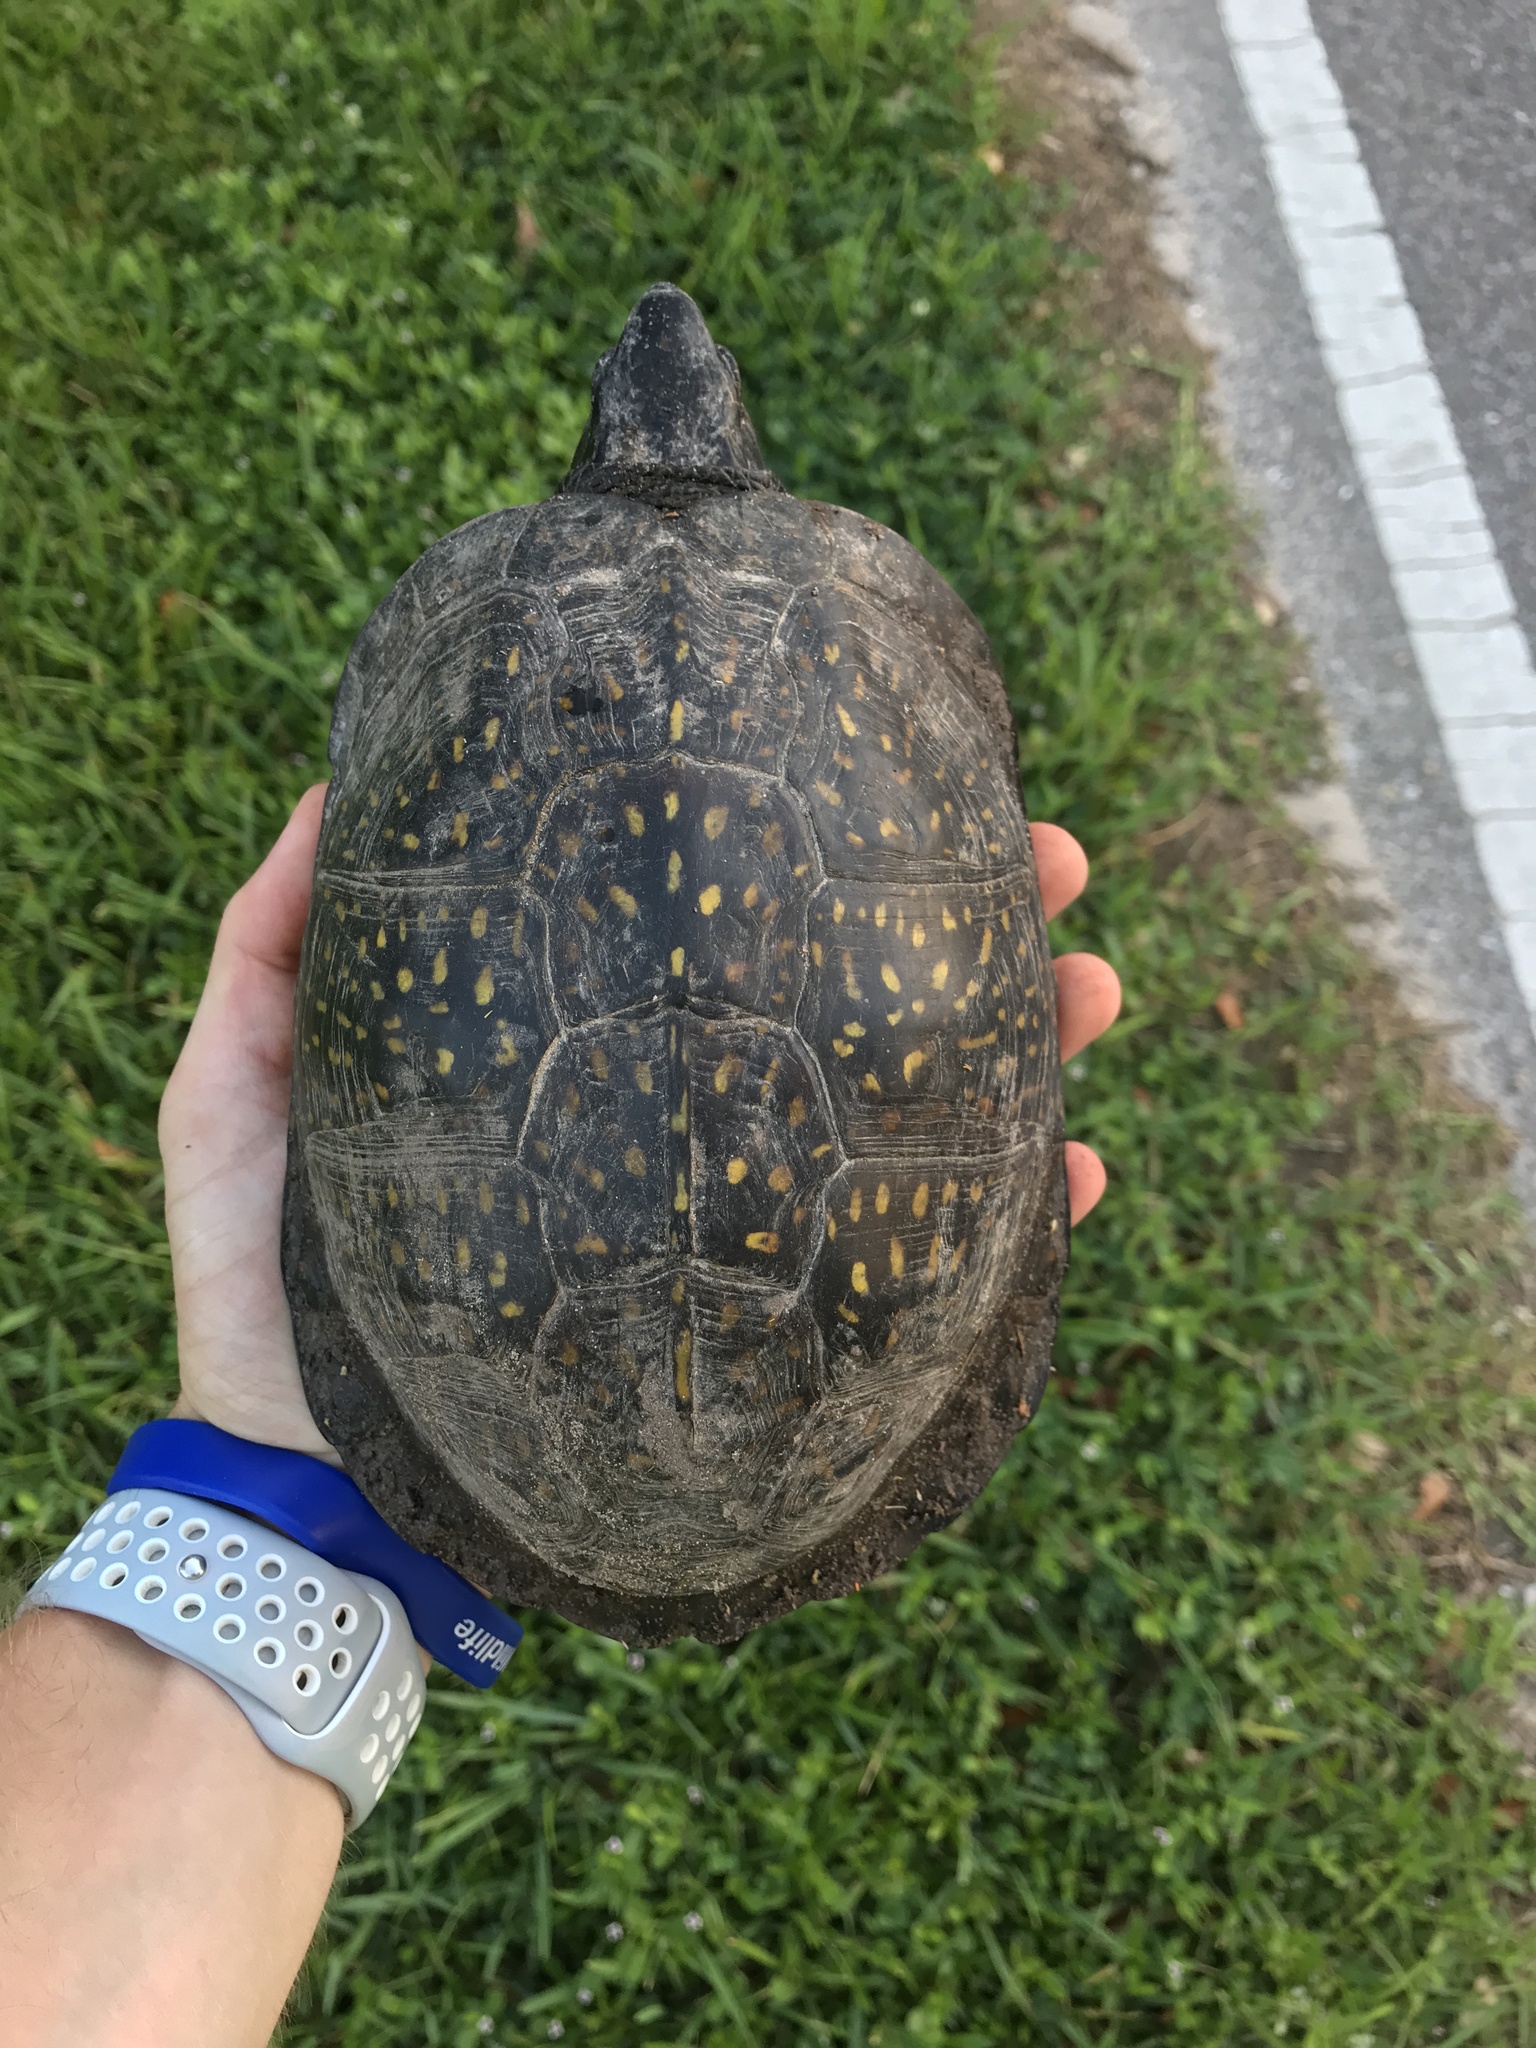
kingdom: Animalia
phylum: Chordata
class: Testudines
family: Emydidae
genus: Terrapene
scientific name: Terrapene carolina
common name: Common box turtle
